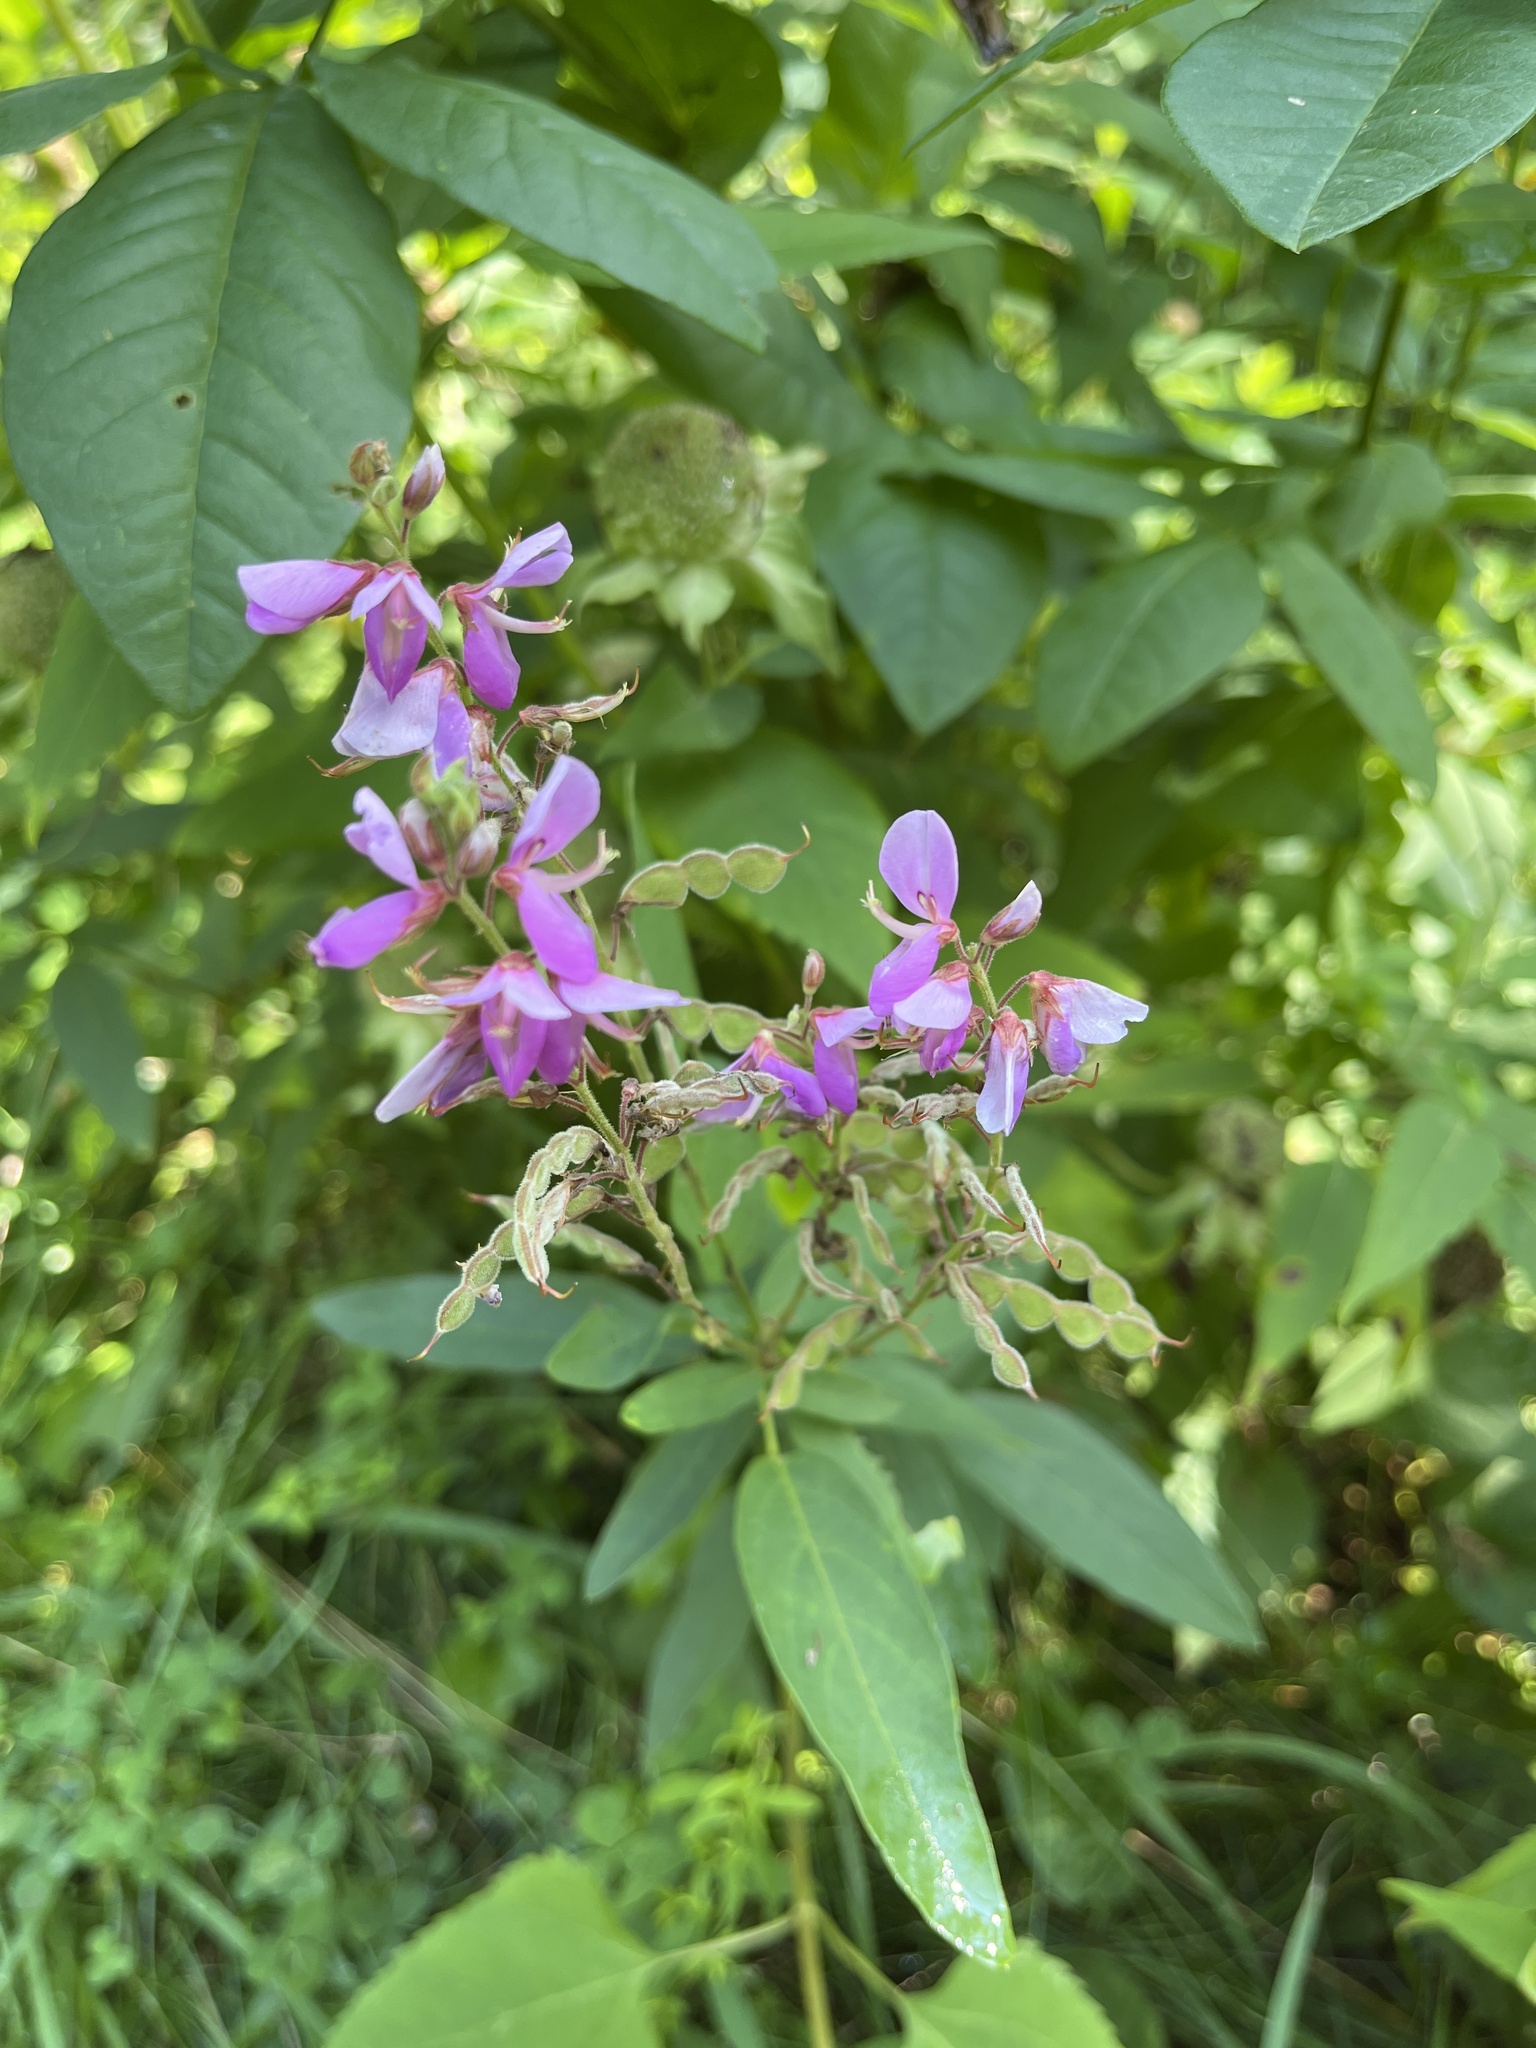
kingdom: Plantae
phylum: Tracheophyta
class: Magnoliopsida
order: Fabales
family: Fabaceae
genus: Desmodium
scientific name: Desmodium canadense
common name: Canada tick-trefoil
